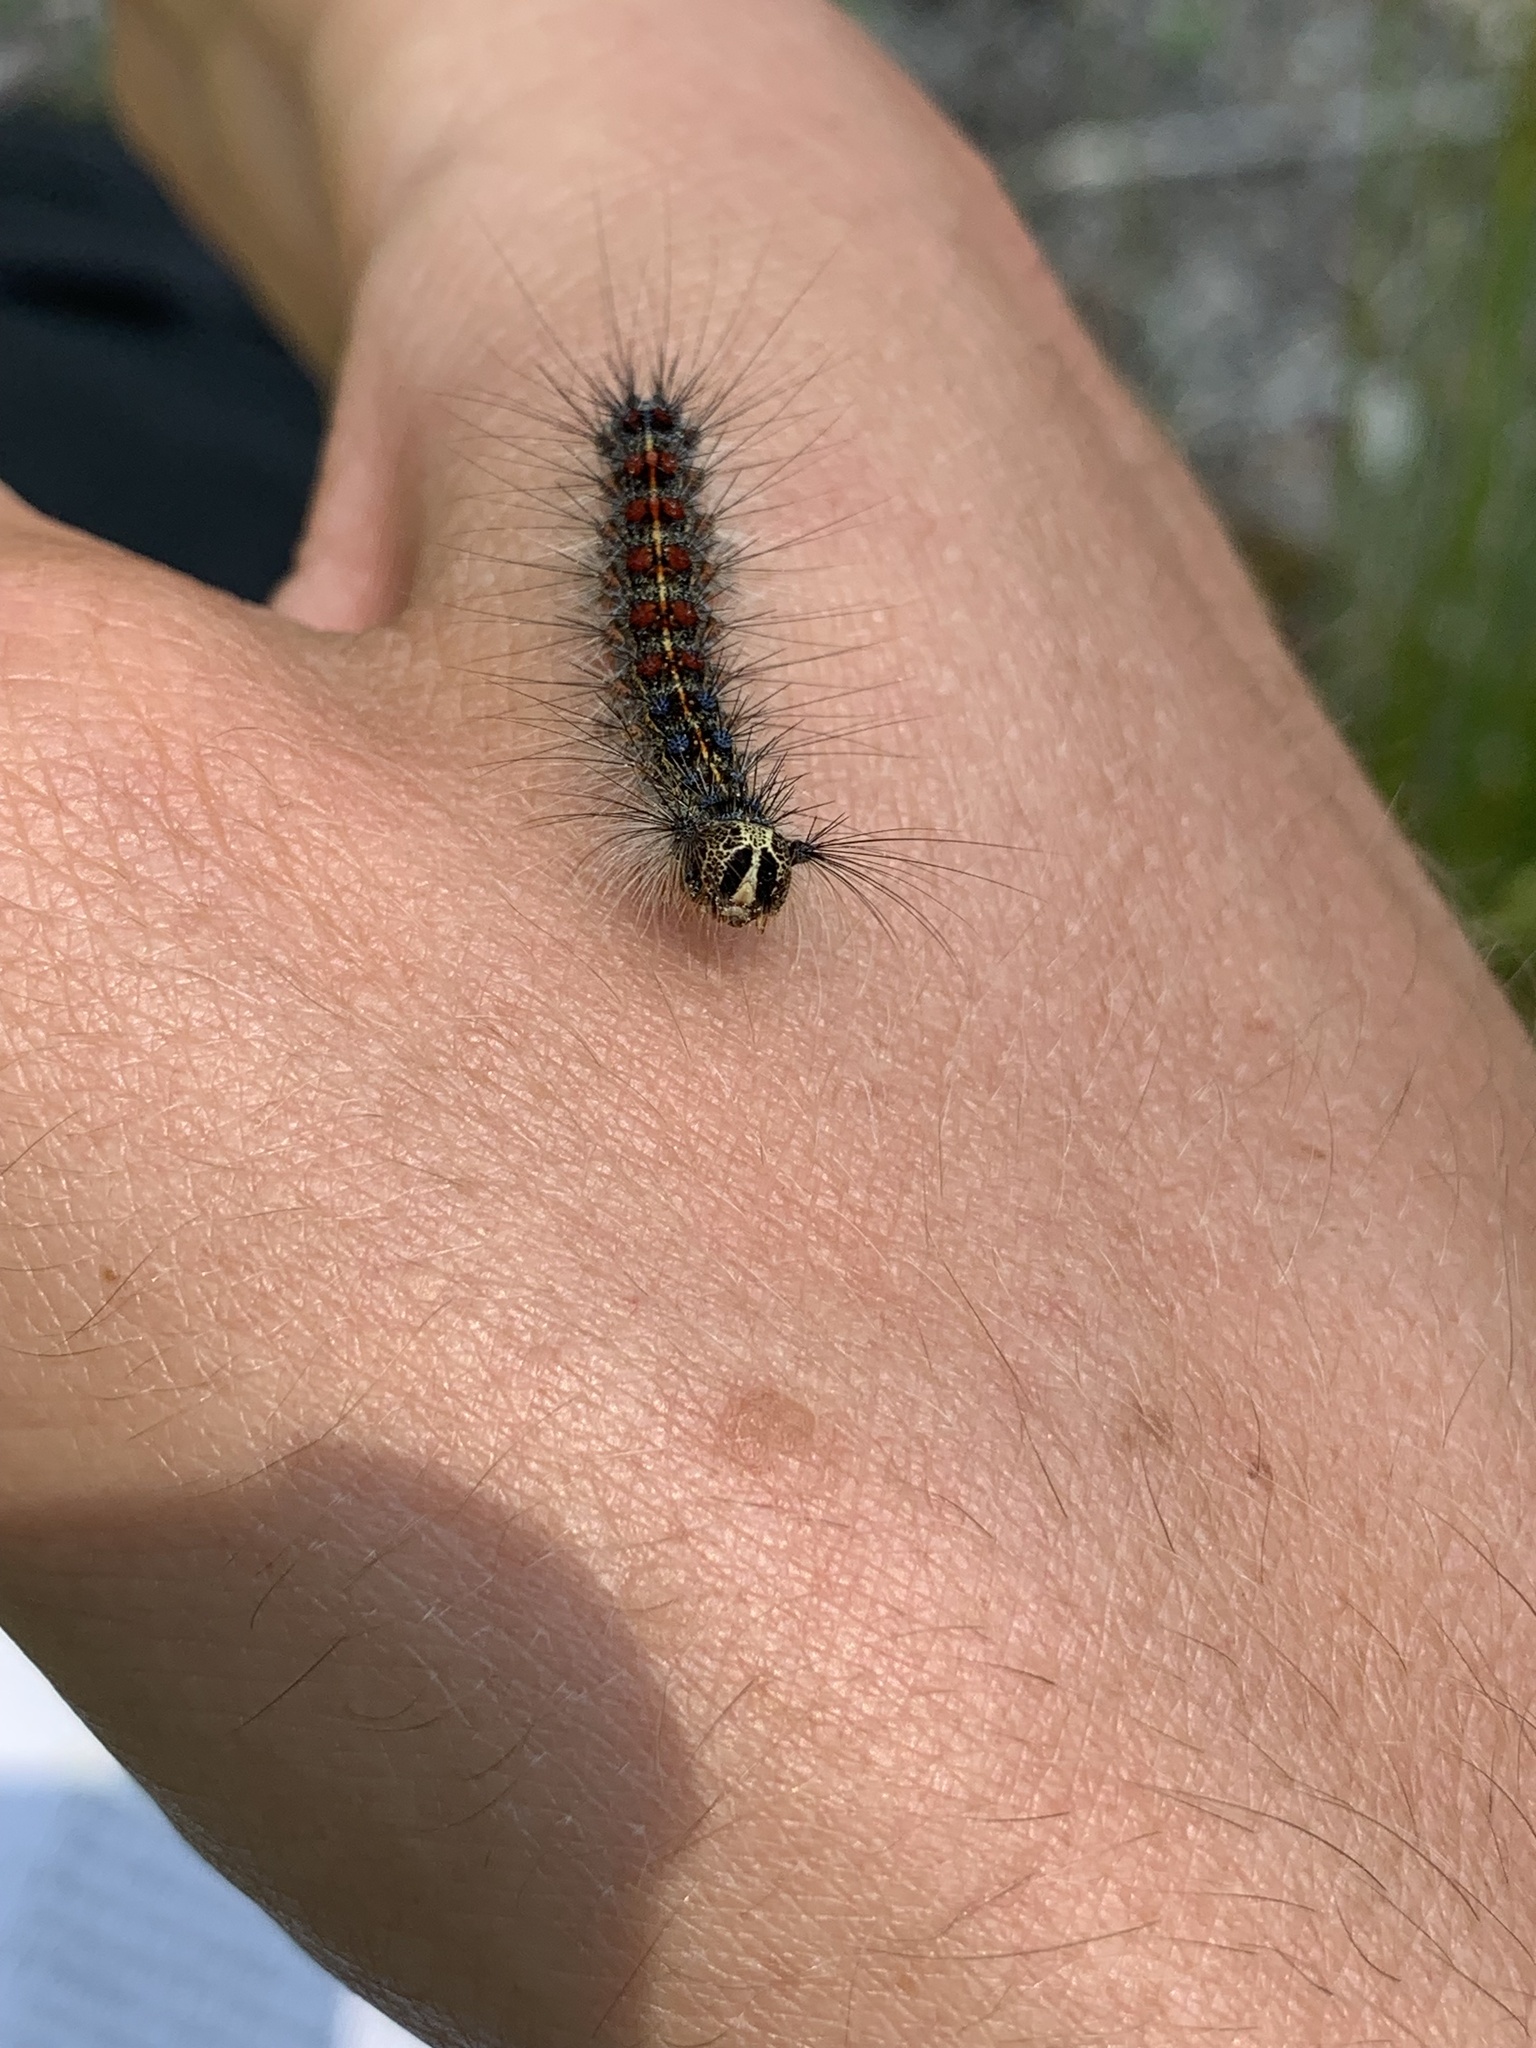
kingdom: Animalia
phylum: Arthropoda
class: Insecta
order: Lepidoptera
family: Erebidae
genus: Lymantria
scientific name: Lymantria dispar
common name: Gypsy moth
